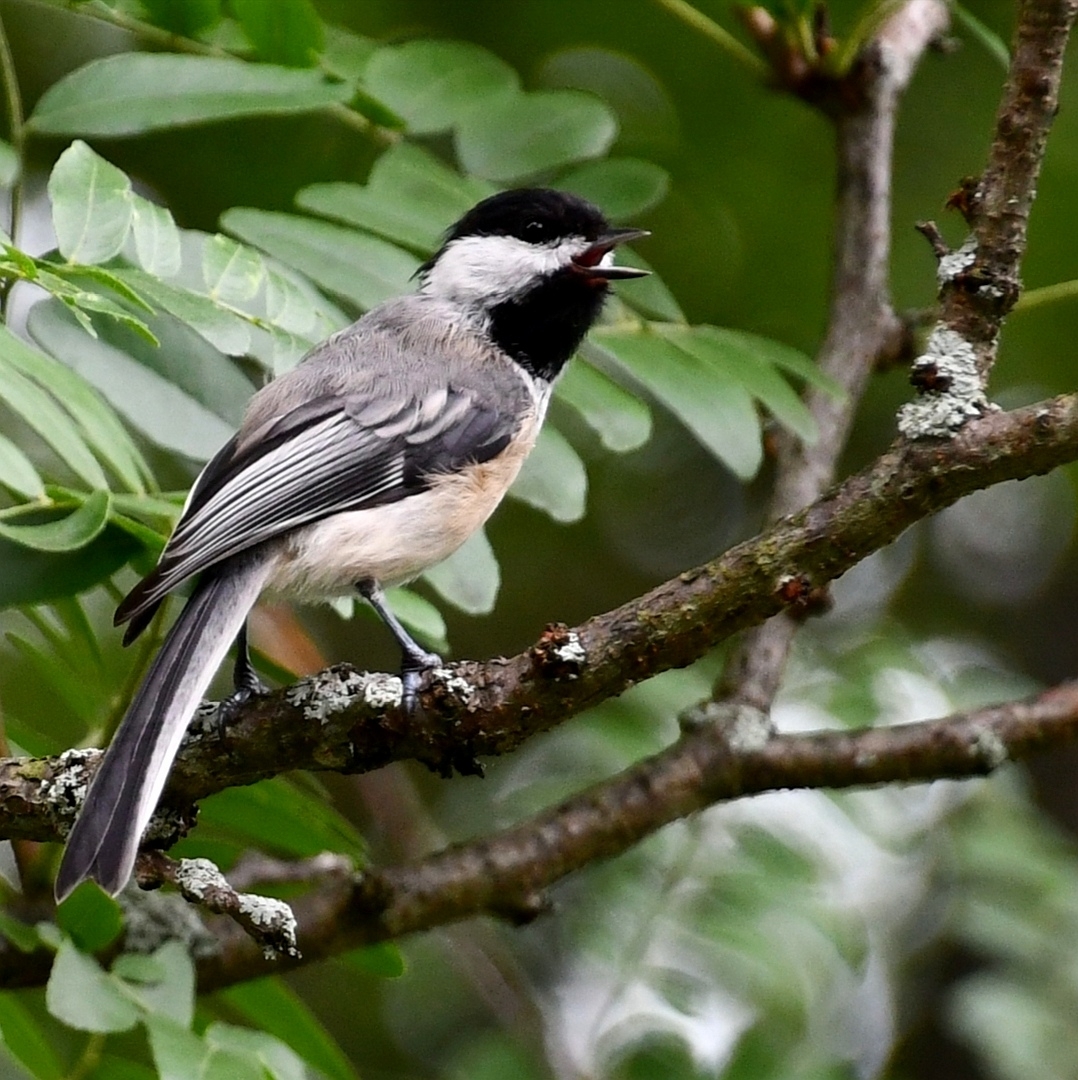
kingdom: Animalia
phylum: Chordata
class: Aves
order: Passeriformes
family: Paridae
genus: Poecile
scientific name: Poecile atricapillus
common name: Black-capped chickadee
